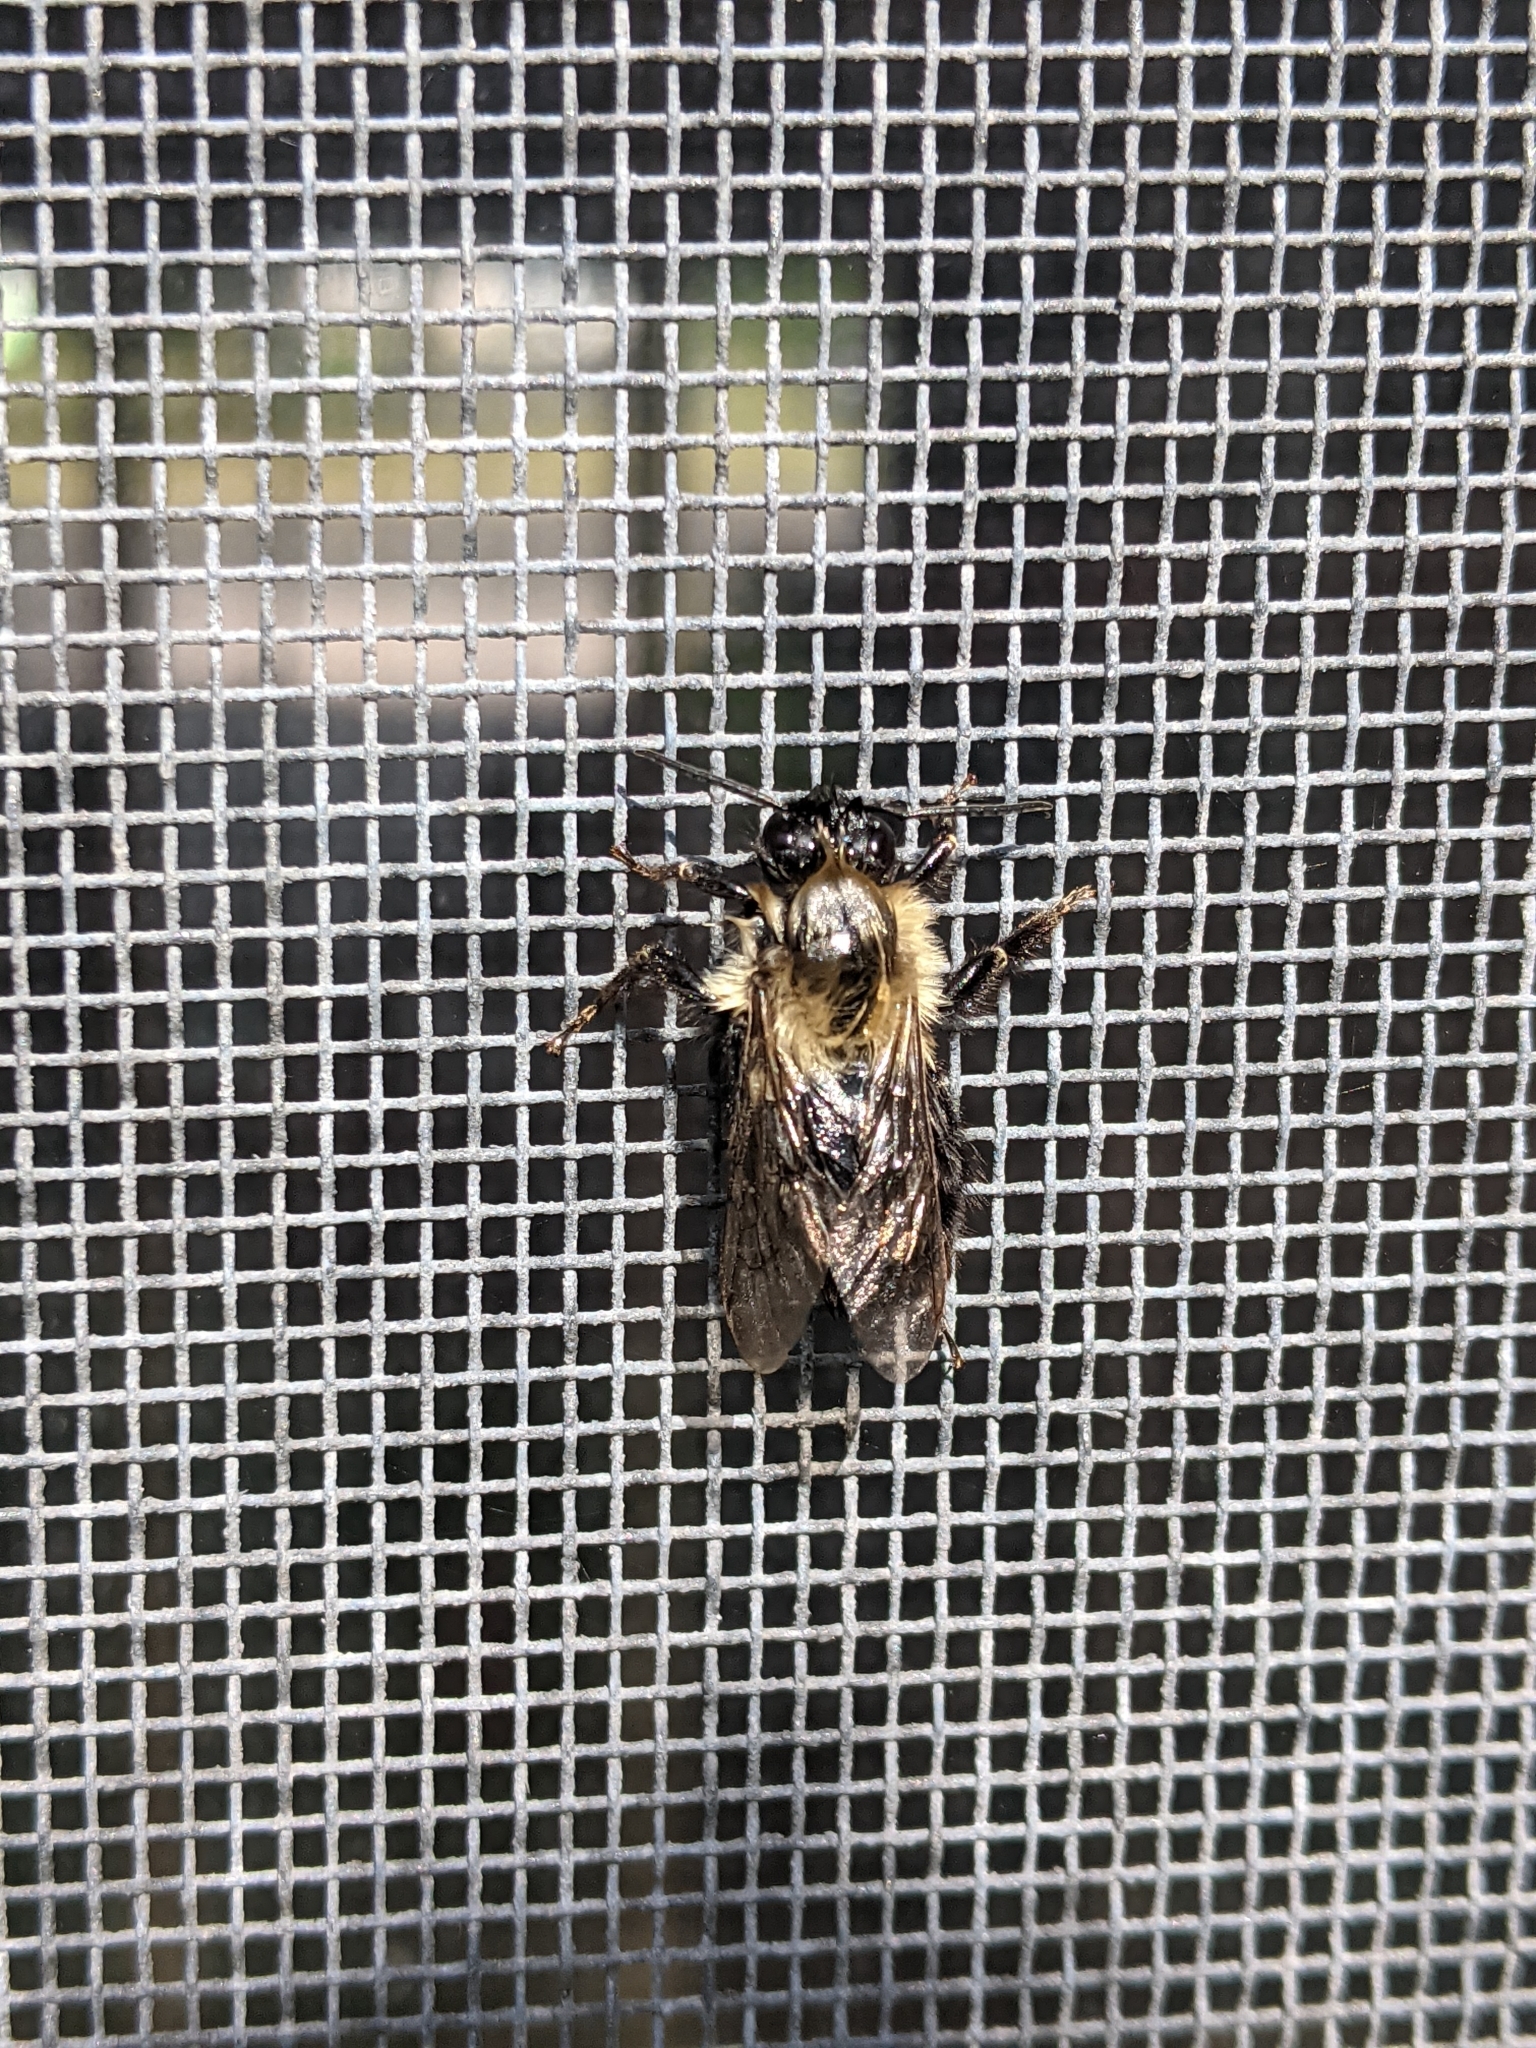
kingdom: Animalia
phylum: Arthropoda
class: Insecta
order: Hymenoptera
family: Apidae
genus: Bombus
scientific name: Bombus impatiens
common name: Common eastern bumble bee
